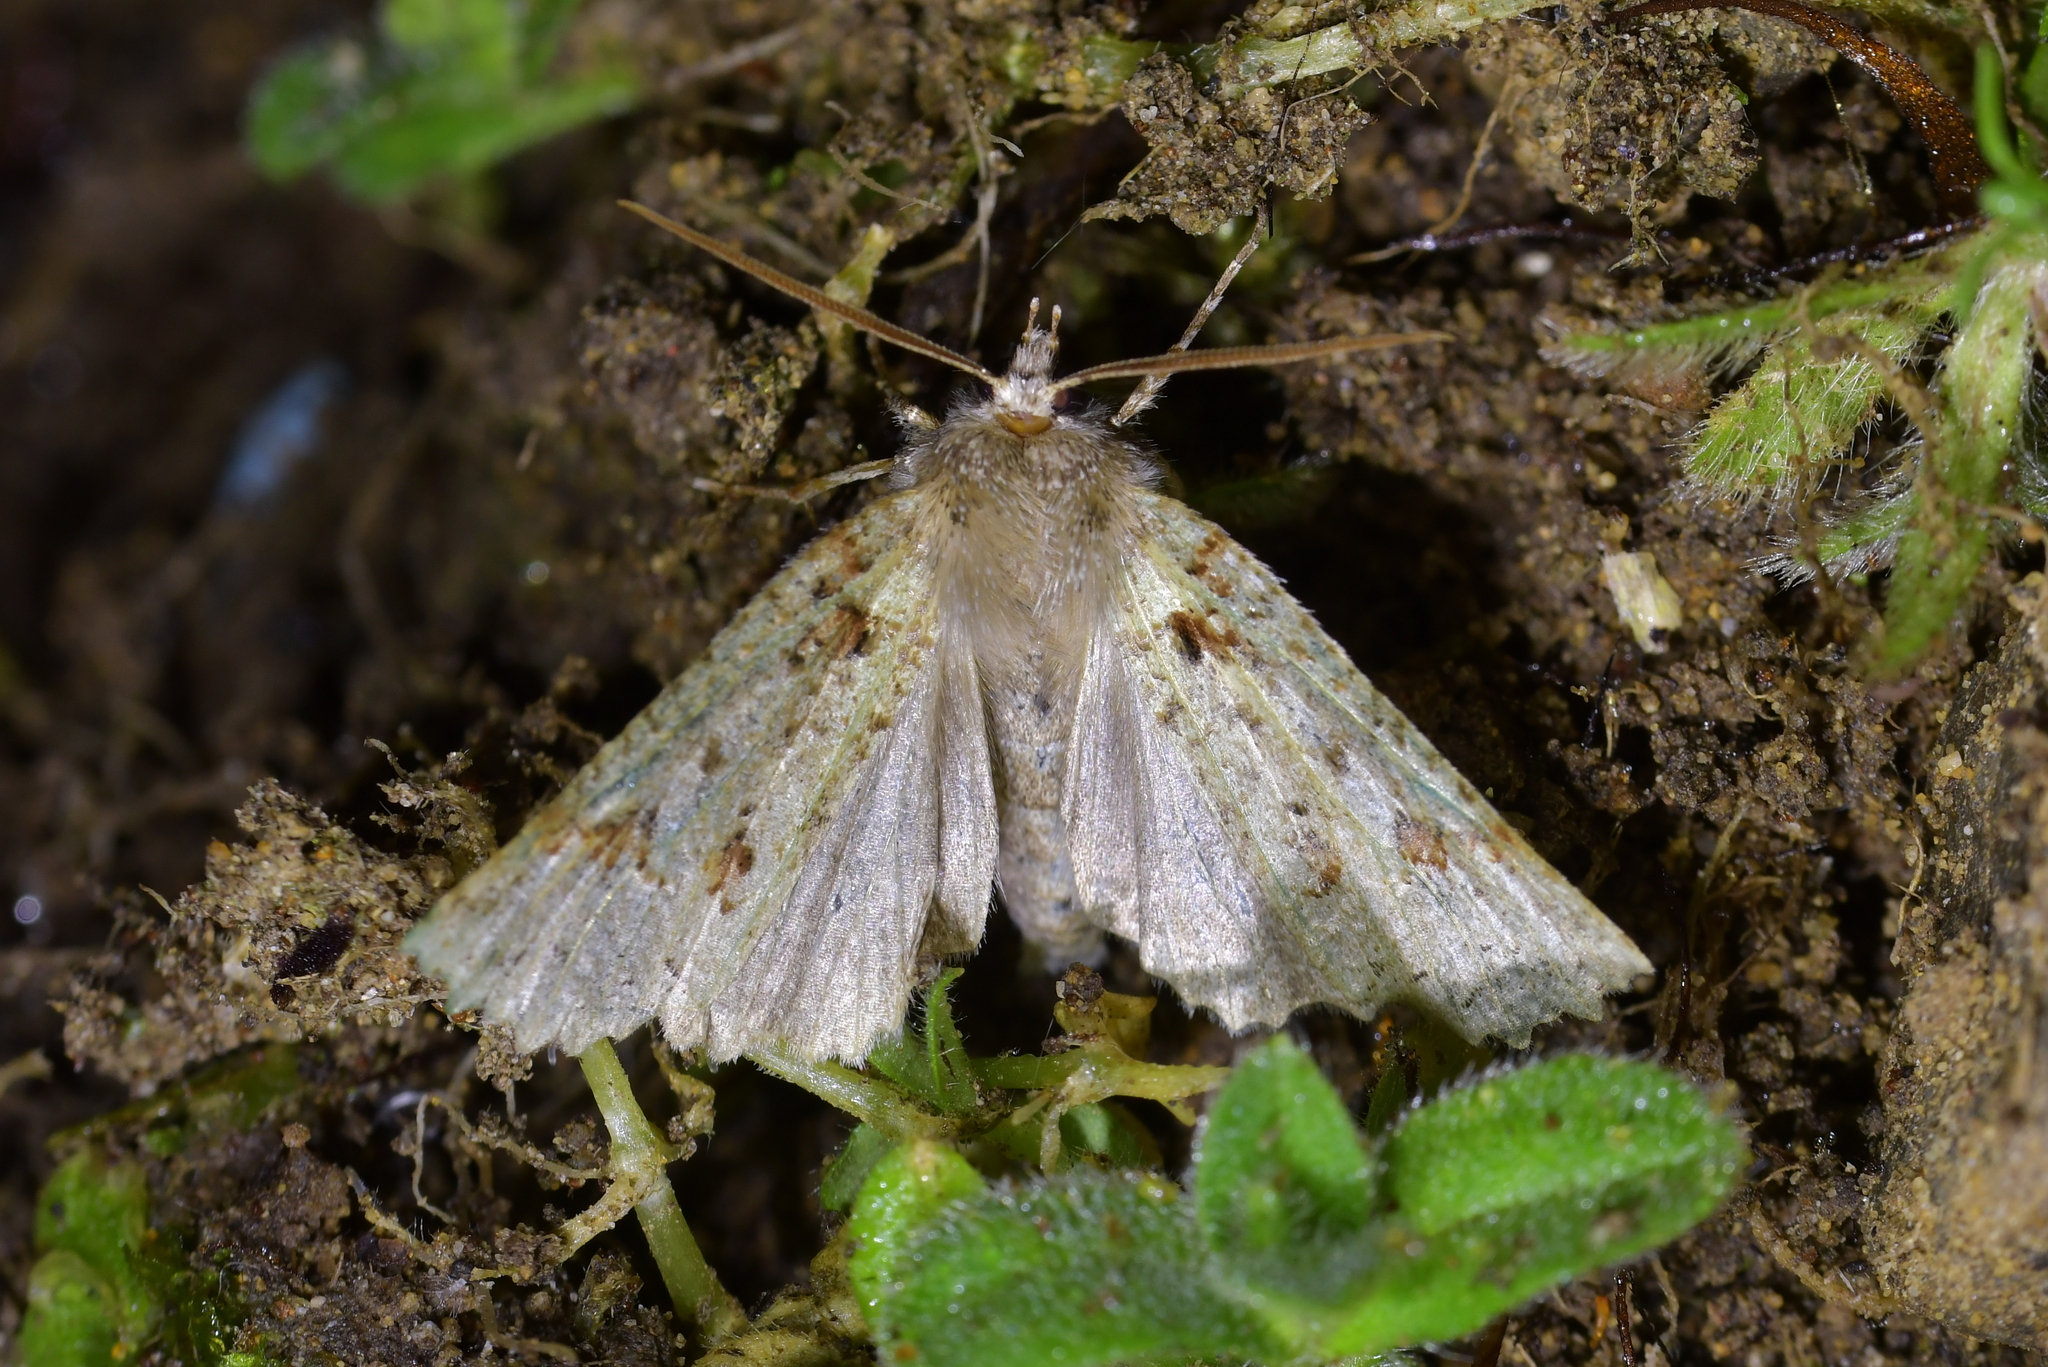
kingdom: Animalia
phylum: Arthropoda
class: Insecta
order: Lepidoptera
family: Geometridae
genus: Declana
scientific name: Declana floccosa
